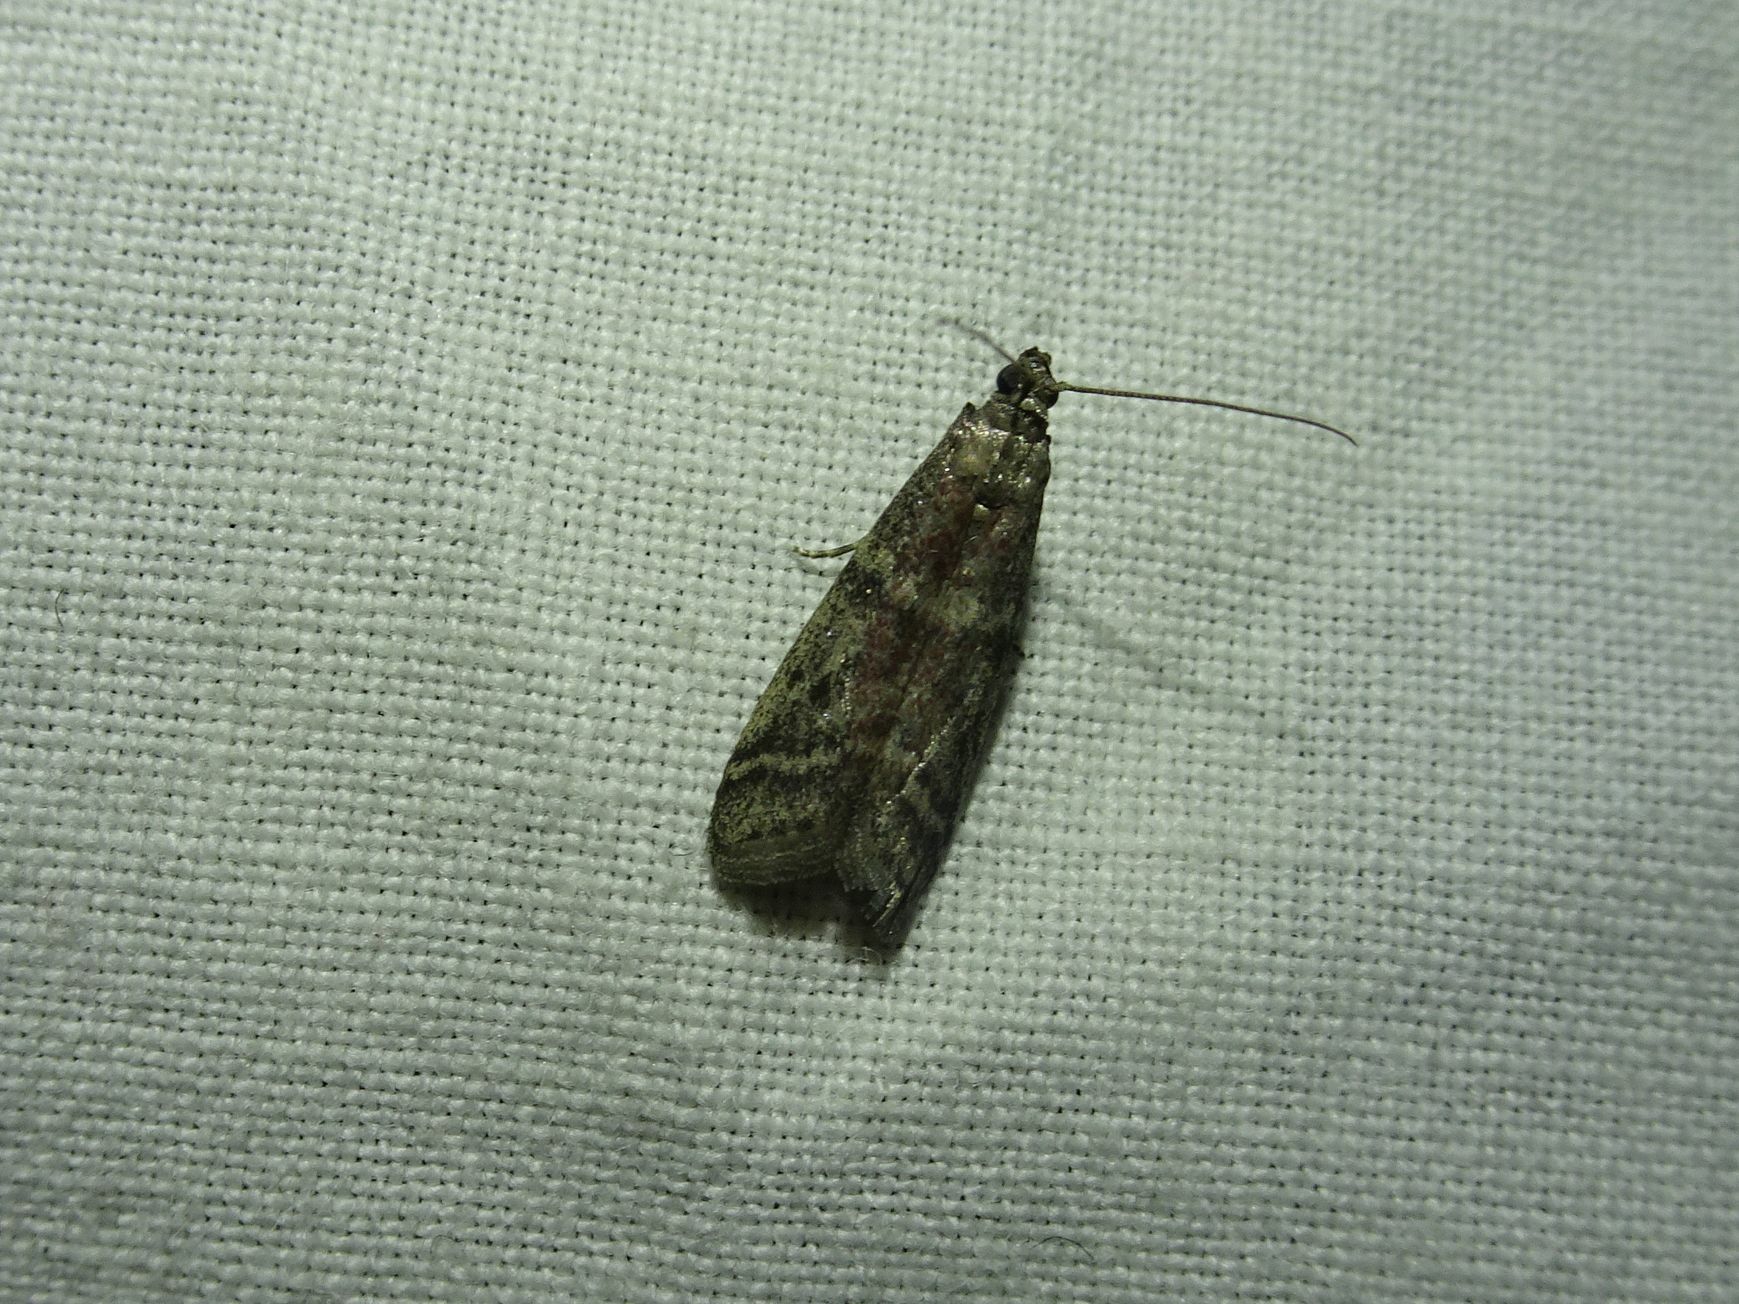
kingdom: Animalia
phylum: Arthropoda
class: Insecta
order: Lepidoptera
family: Pyralidae
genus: Ephestia
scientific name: Ephestia elutella
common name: Cacao moth
